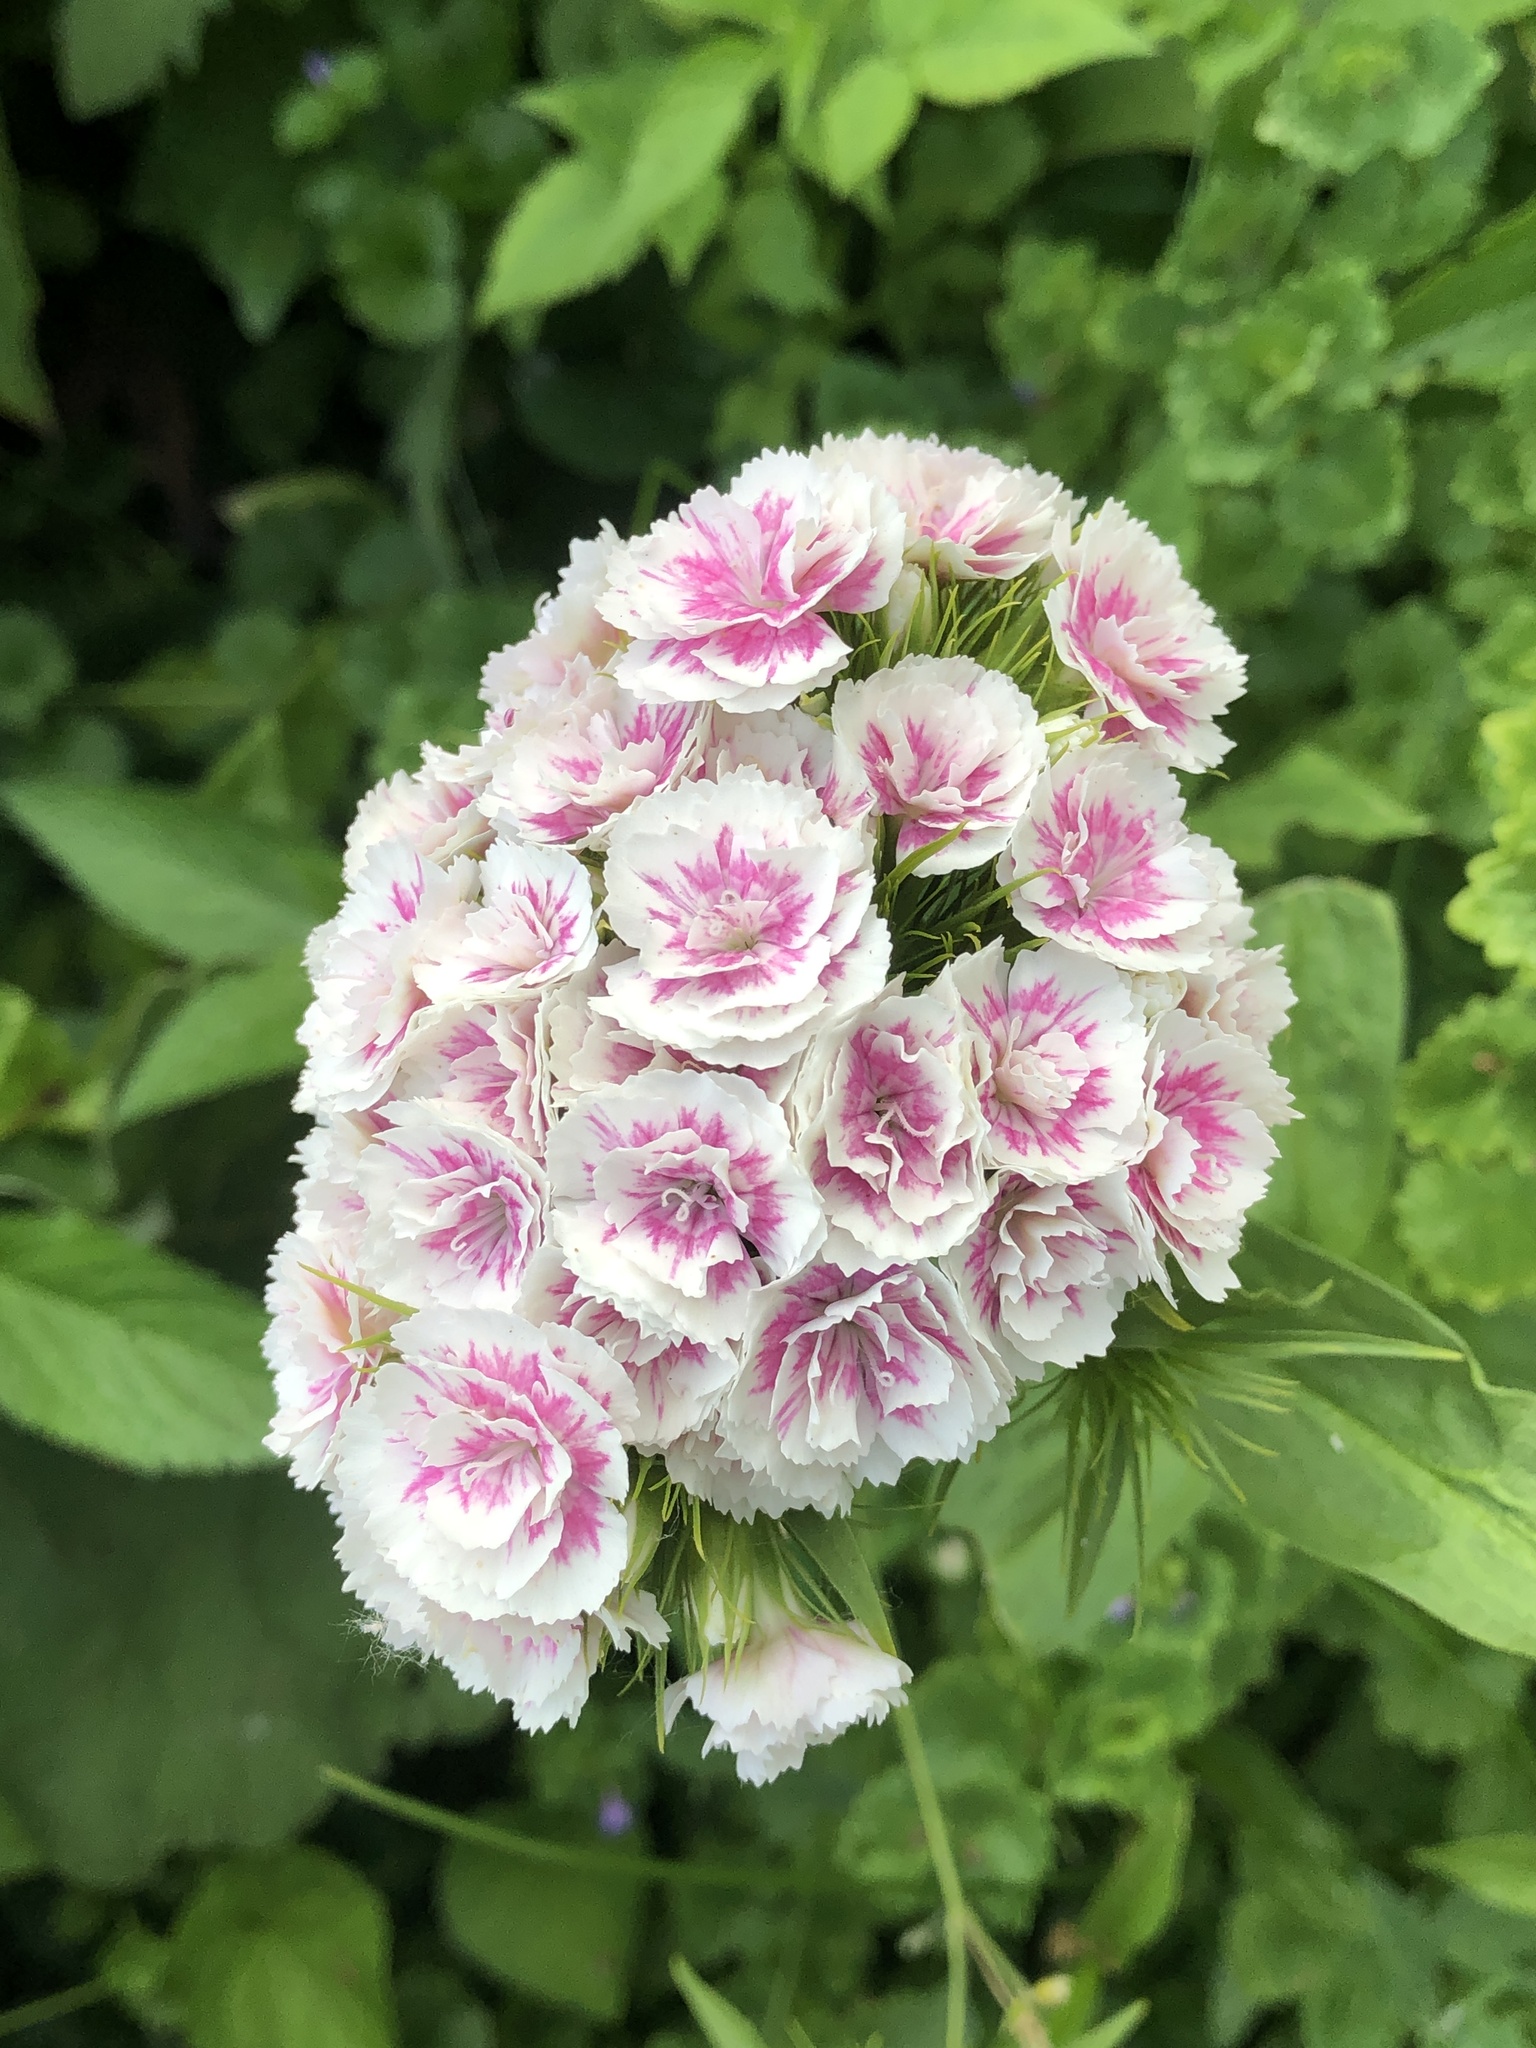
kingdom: Plantae
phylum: Tracheophyta
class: Magnoliopsida
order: Caryophyllales
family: Caryophyllaceae
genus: Dianthus
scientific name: Dianthus barbatus
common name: Sweet-william
